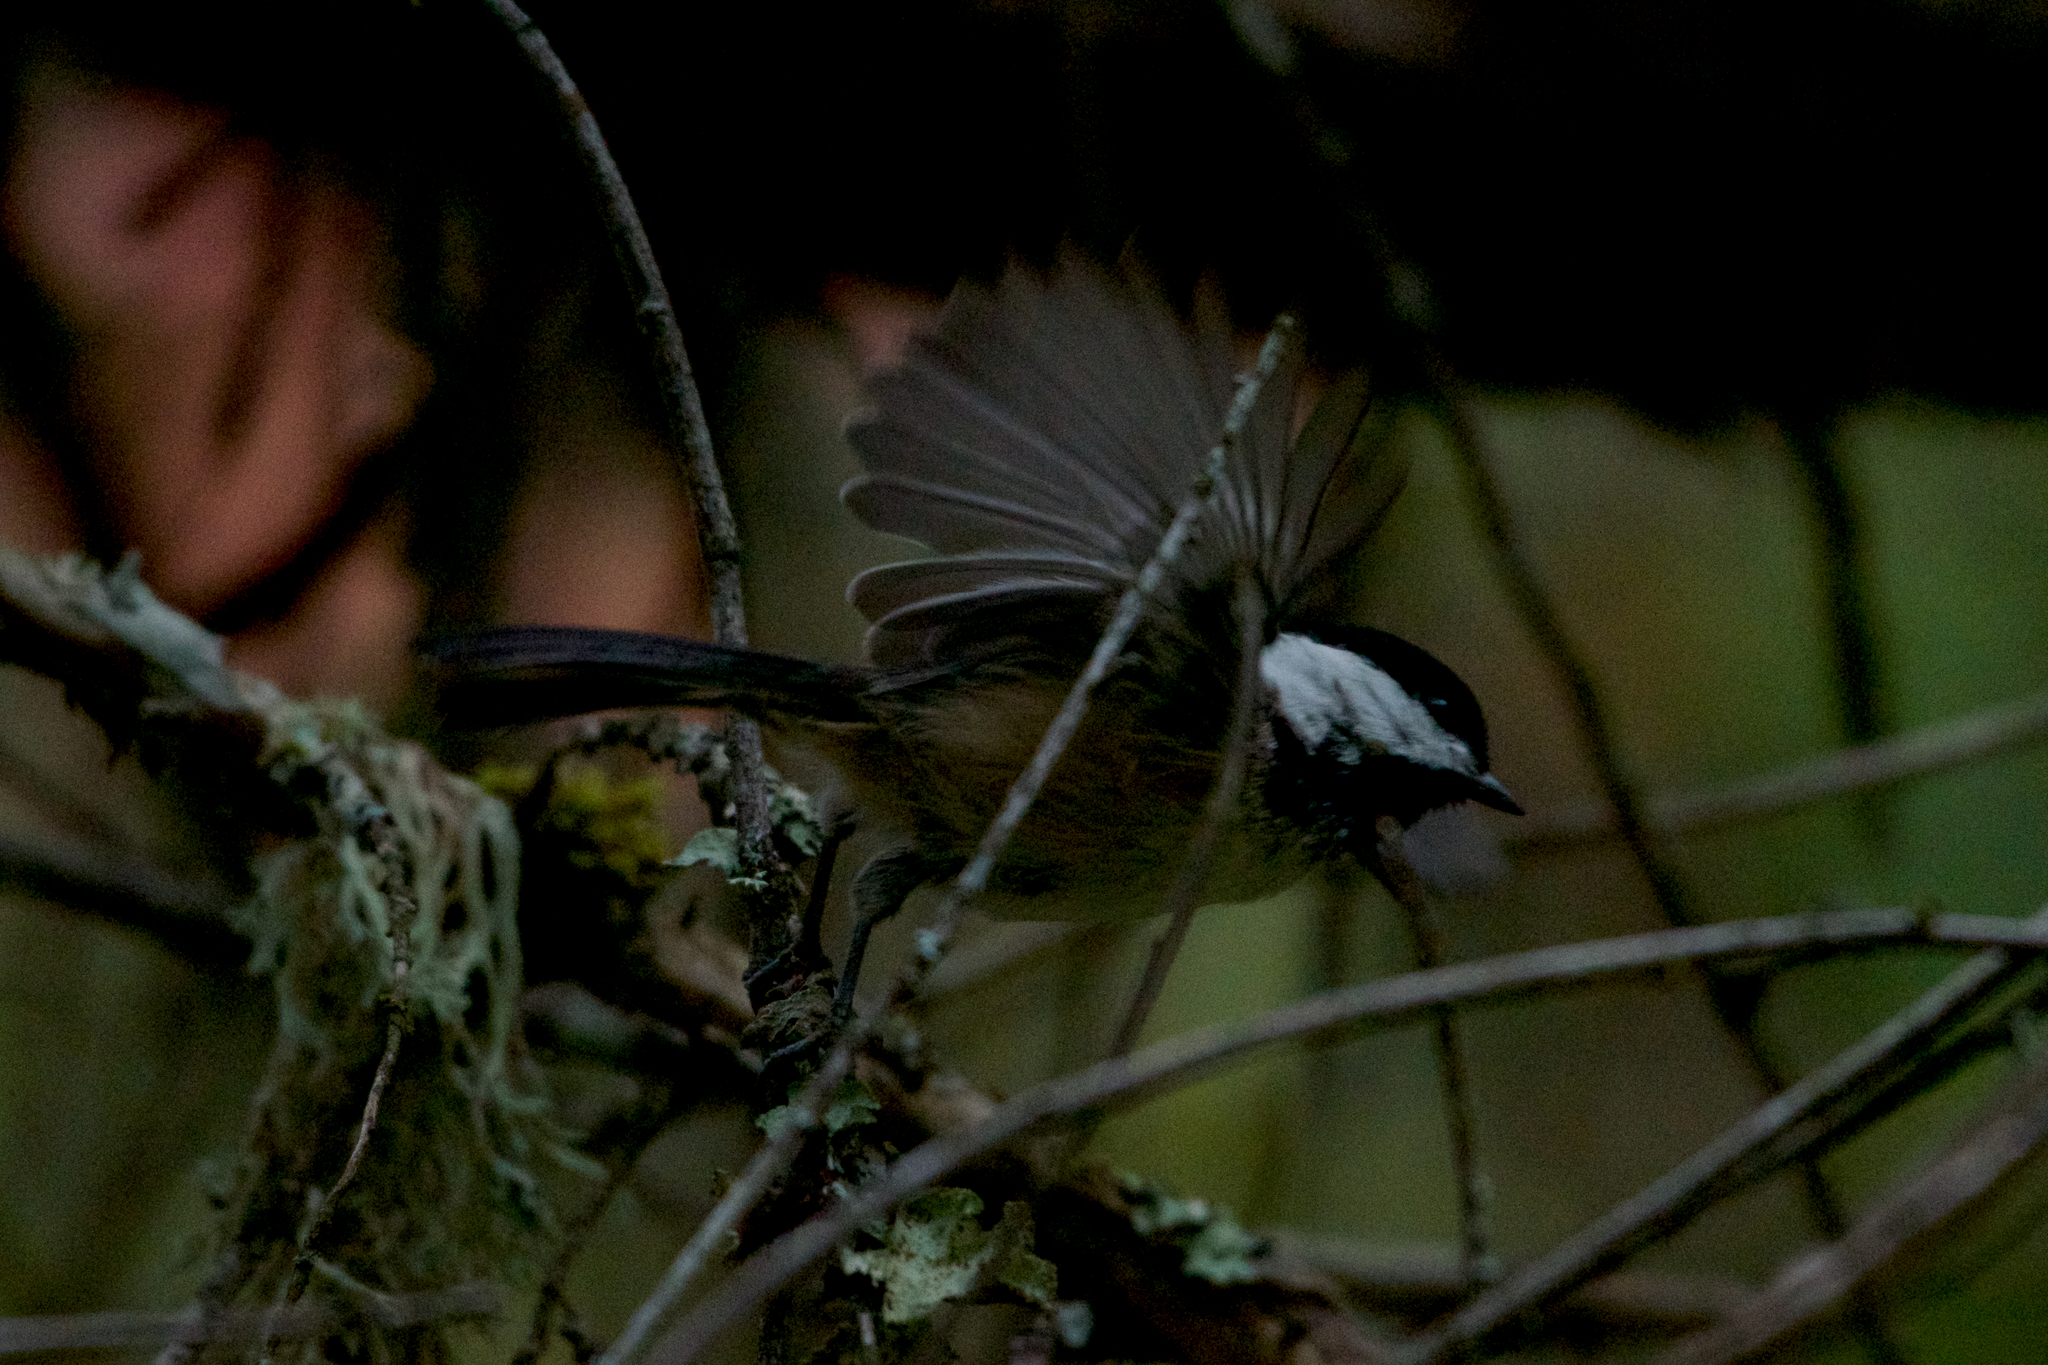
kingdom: Animalia
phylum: Chordata
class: Aves
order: Passeriformes
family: Paridae
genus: Poecile
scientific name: Poecile rufescens
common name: Chestnut-backed chickadee
